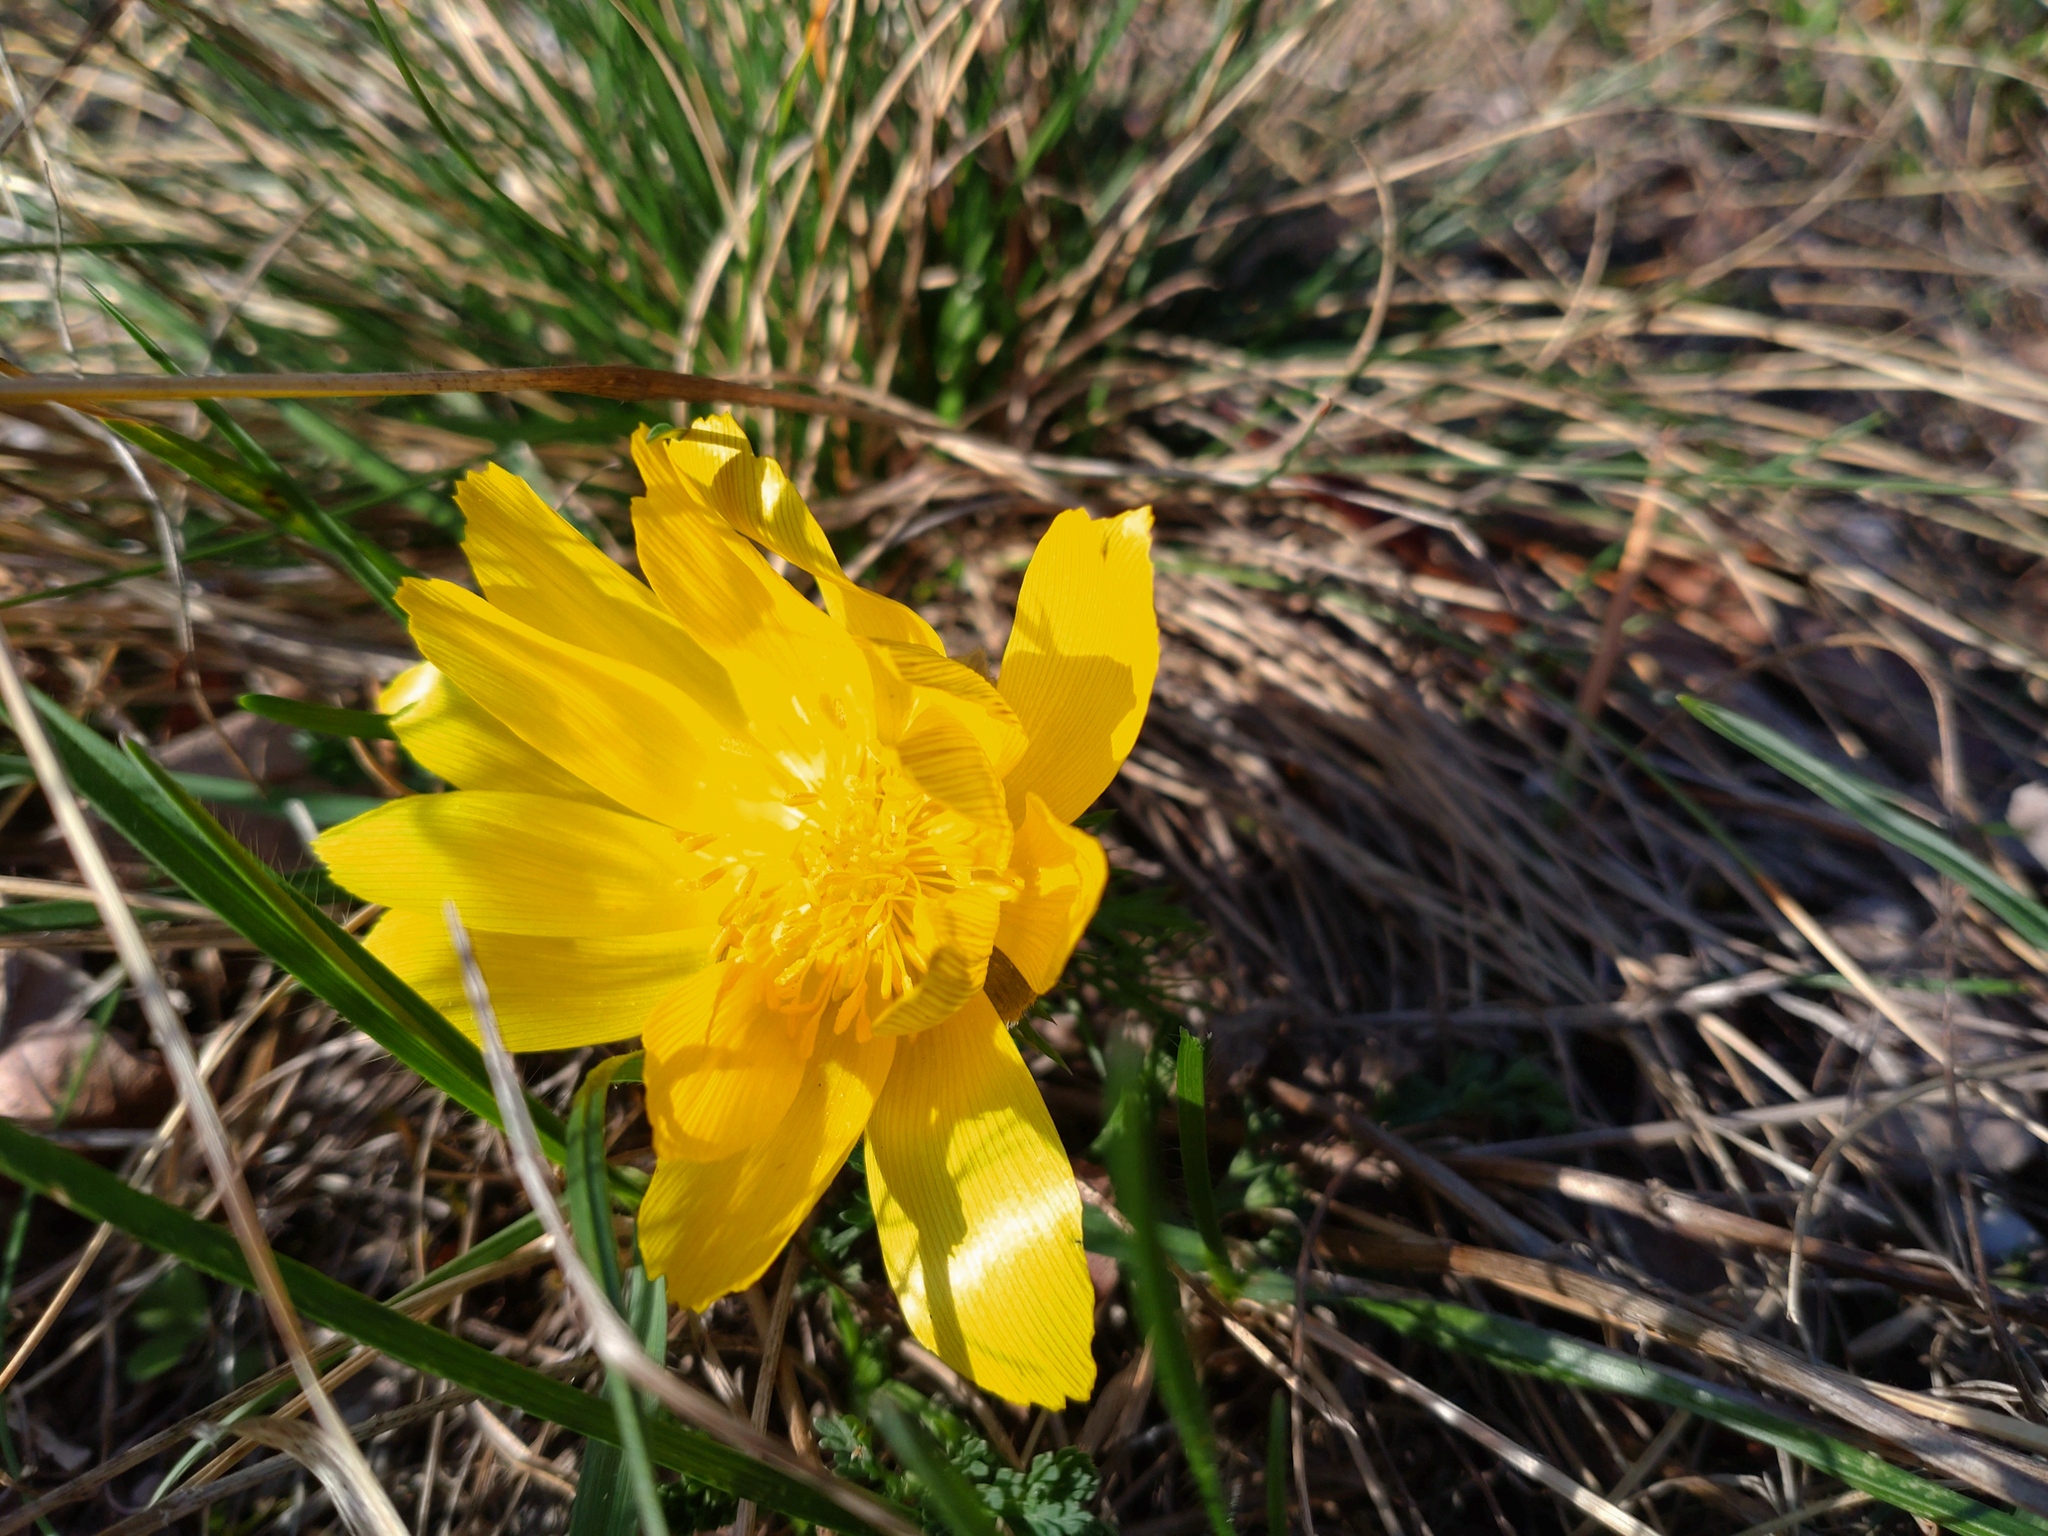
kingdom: Plantae
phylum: Tracheophyta
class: Magnoliopsida
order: Ranunculales
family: Ranunculaceae
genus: Adonis
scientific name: Adonis vernalis
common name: Yellow pheasants-eye
